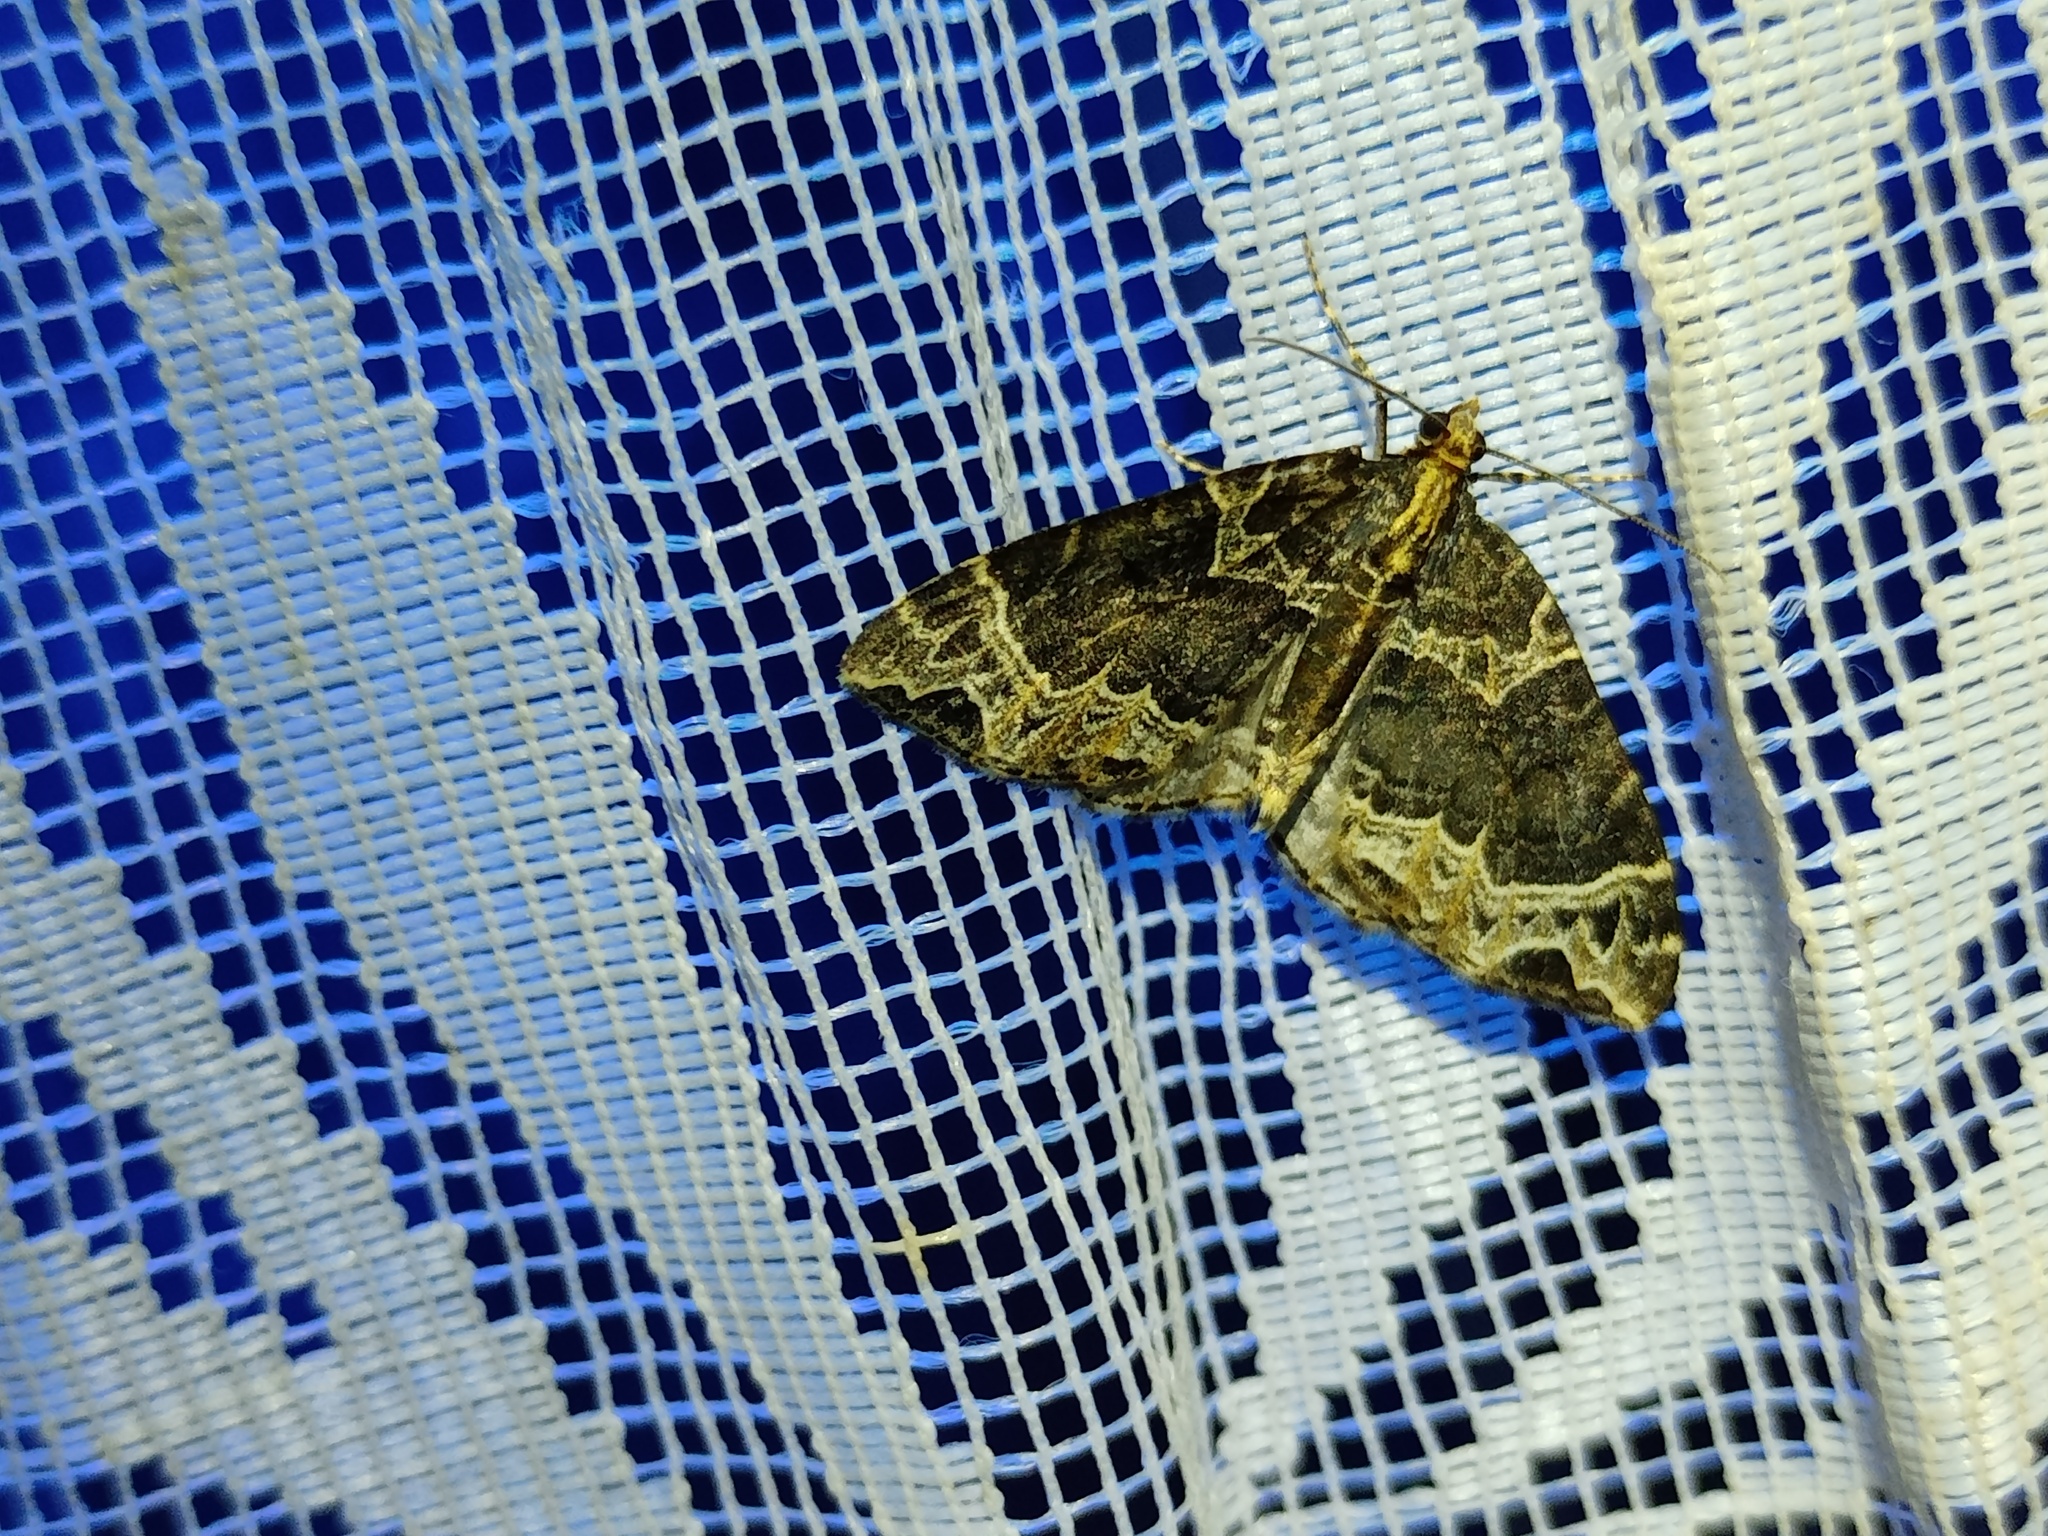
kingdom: Animalia
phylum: Arthropoda
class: Insecta
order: Lepidoptera
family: Geometridae
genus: Ecliptopera
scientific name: Ecliptopera silaceata
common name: Small phoenix
